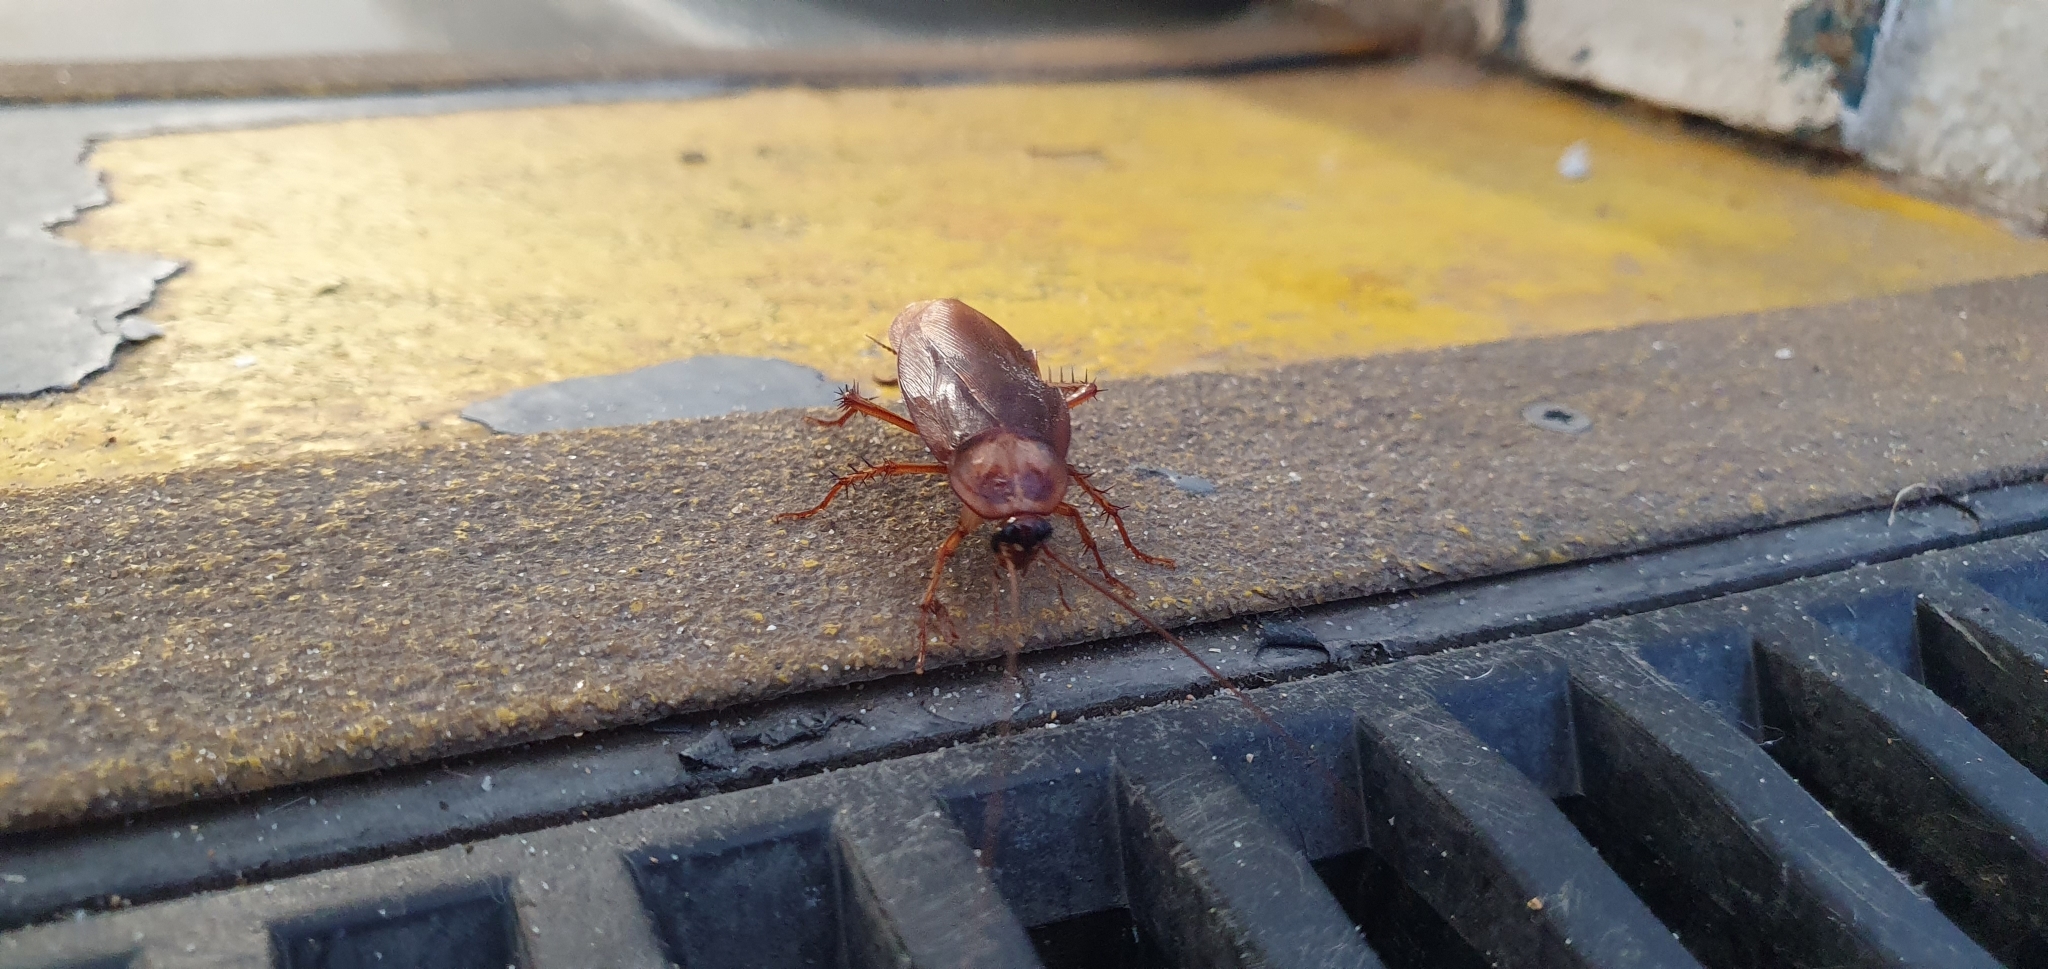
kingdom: Animalia
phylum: Arthropoda
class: Insecta
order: Blattodea
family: Blattidae
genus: Periplaneta
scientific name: Periplaneta americana
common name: American cockroach
